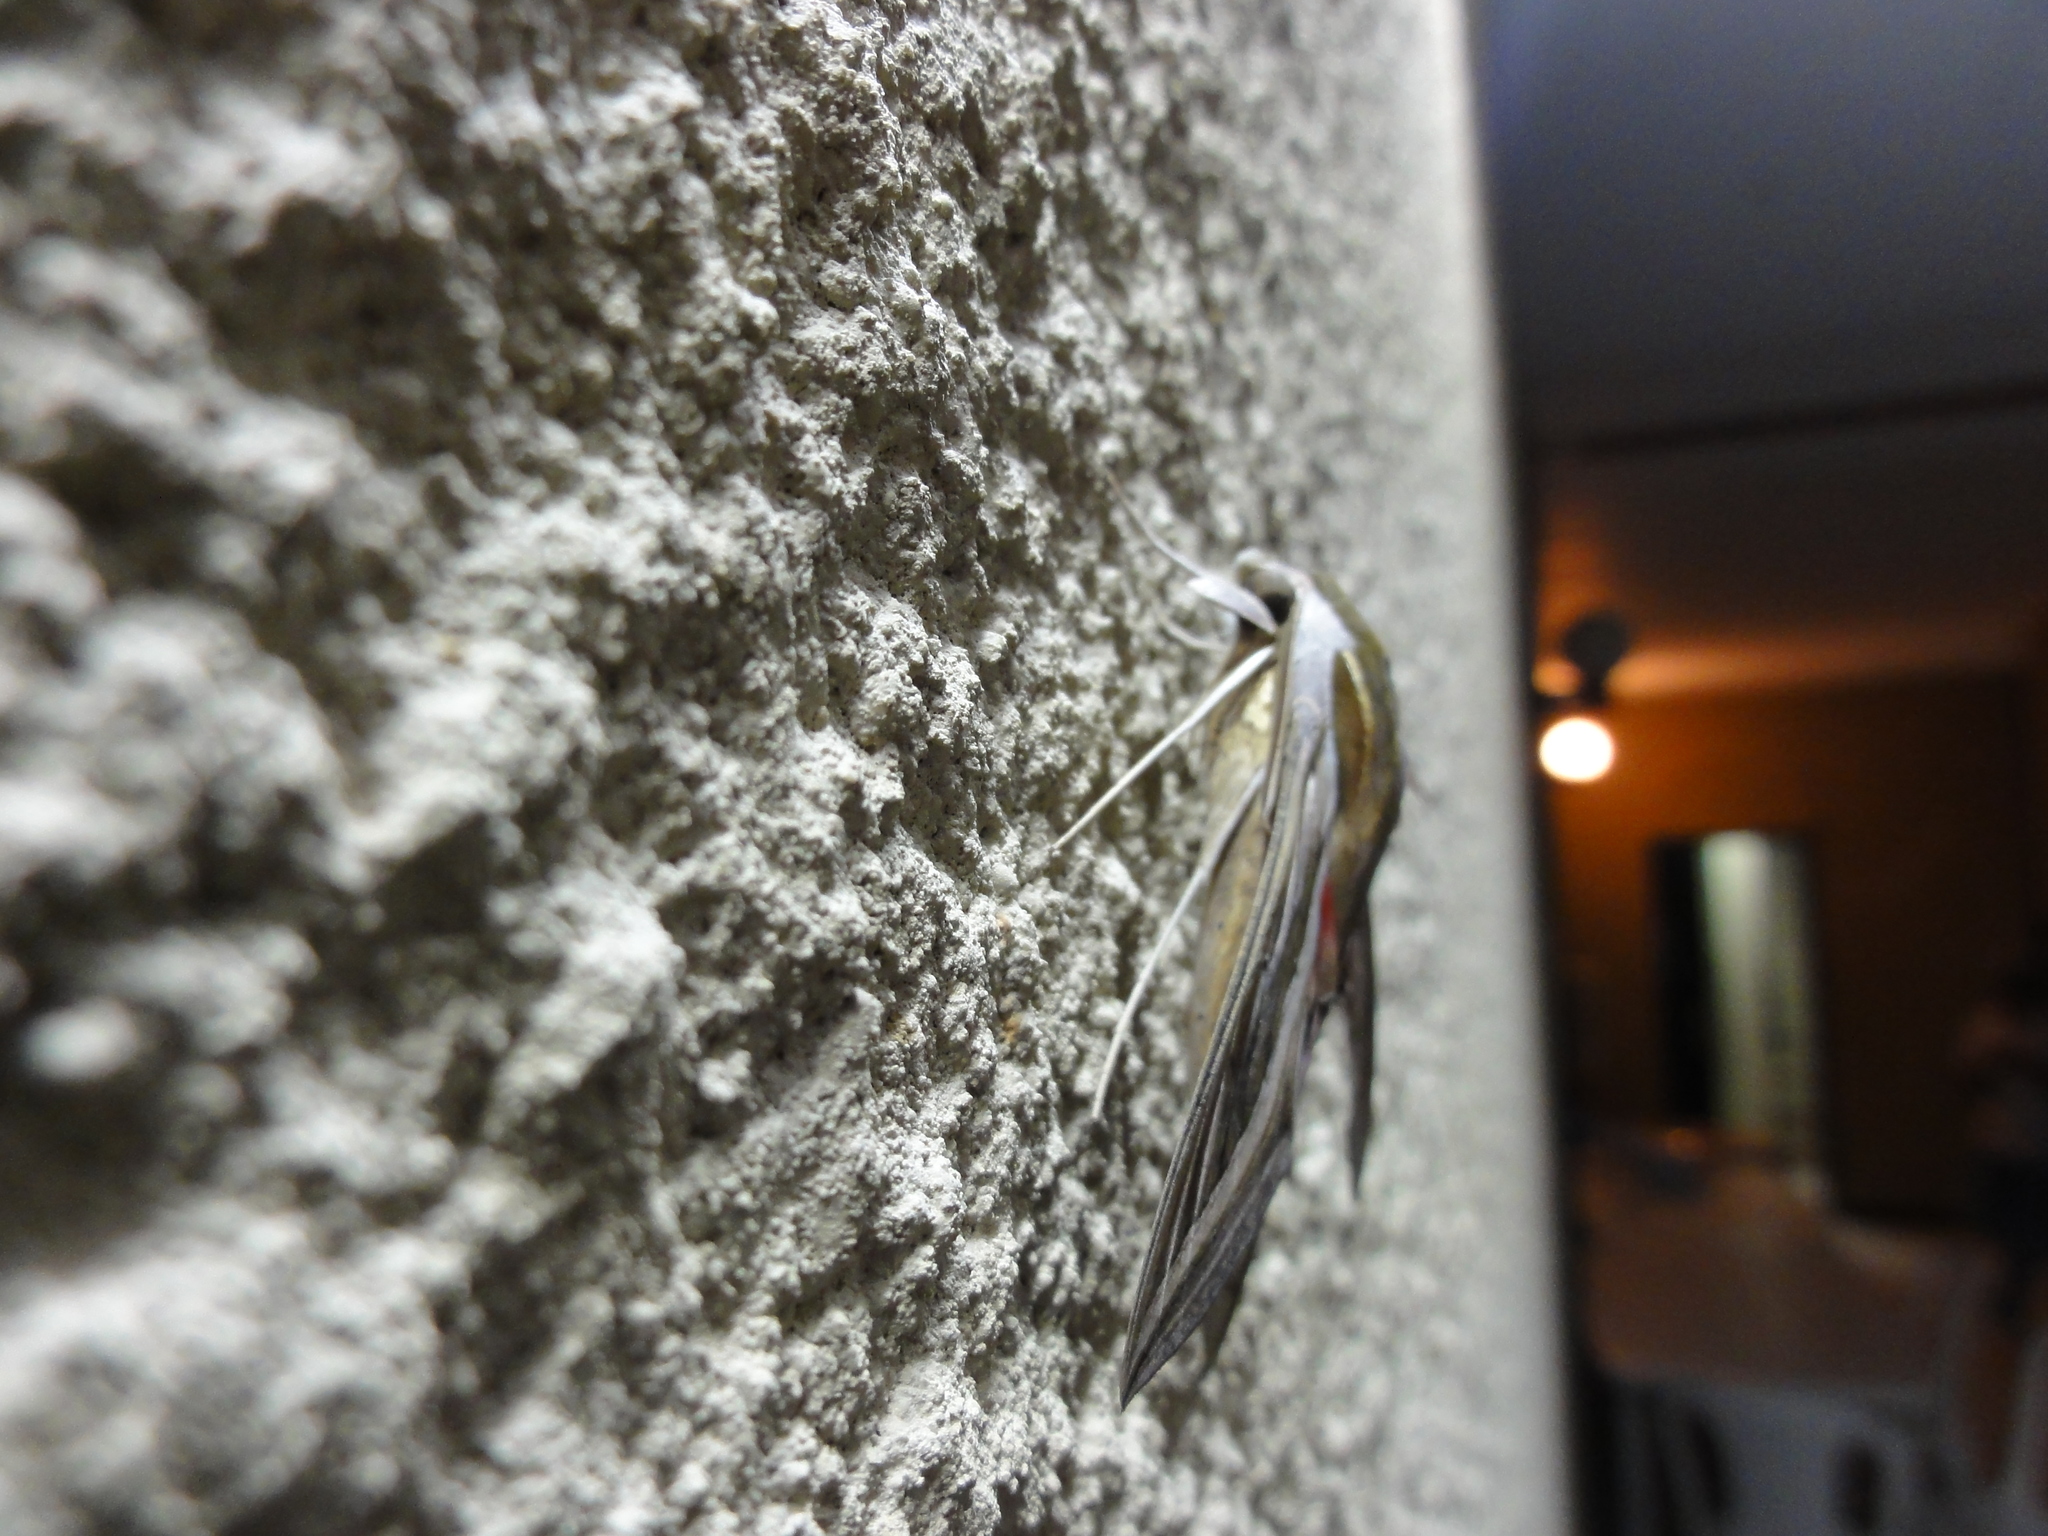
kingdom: Animalia
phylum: Arthropoda
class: Insecta
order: Lepidoptera
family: Sphingidae
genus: Hippotion
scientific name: Hippotion celerio
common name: Silver-striped hawk-moth
